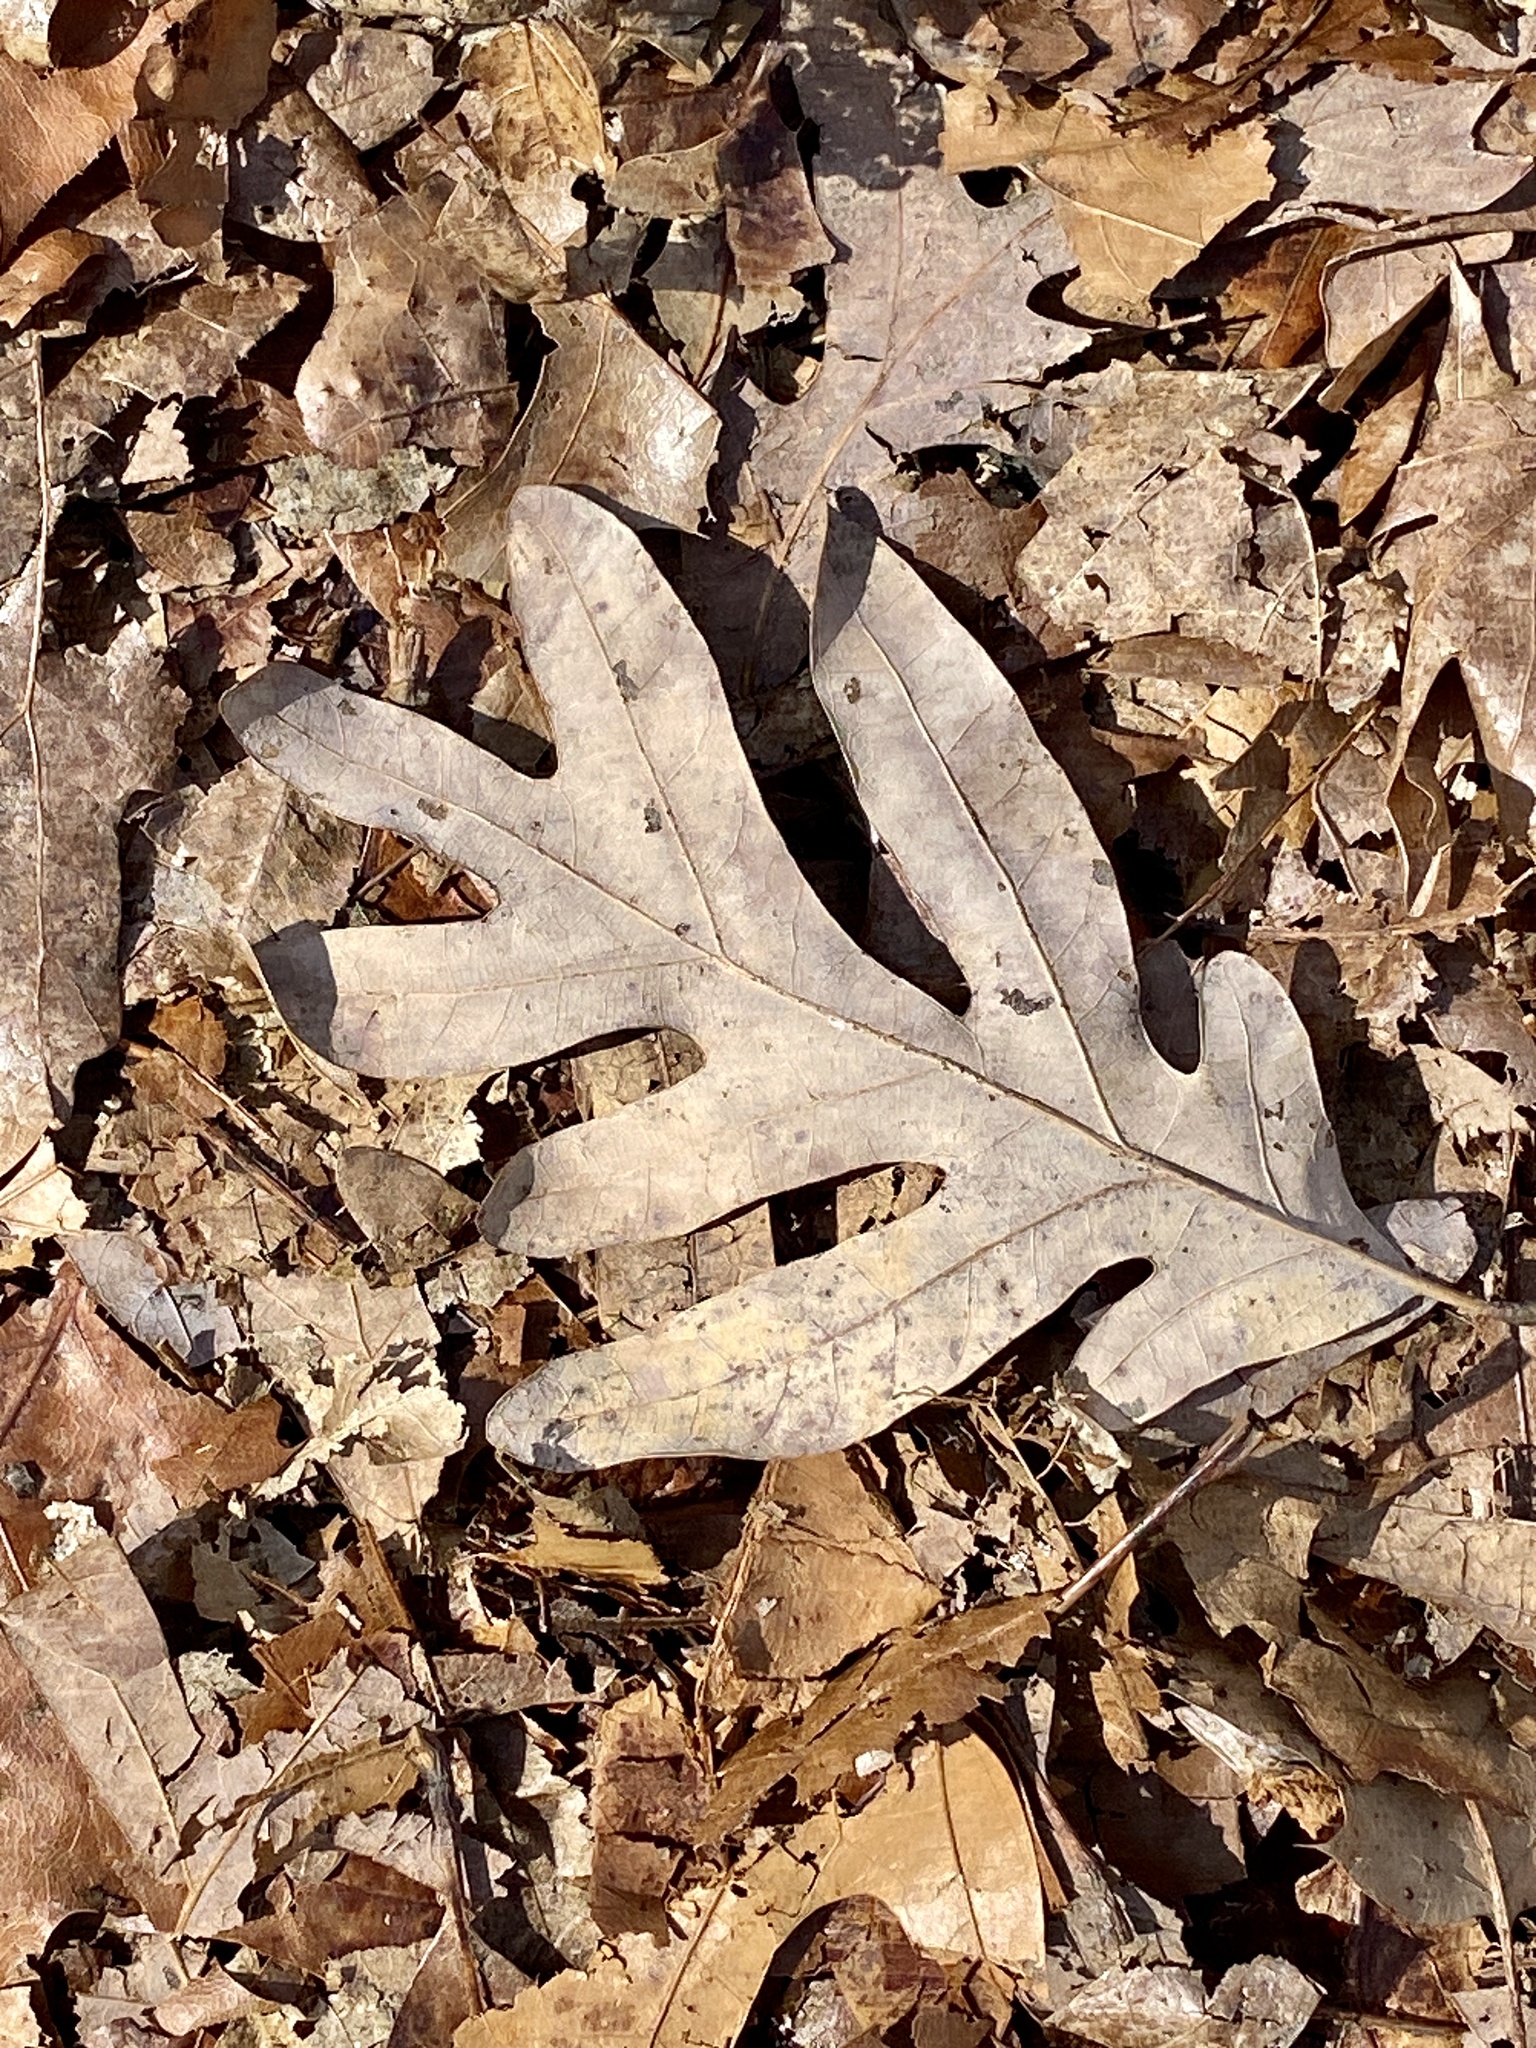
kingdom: Plantae
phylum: Tracheophyta
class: Magnoliopsida
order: Fagales
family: Fagaceae
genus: Quercus
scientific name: Quercus alba
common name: White oak
